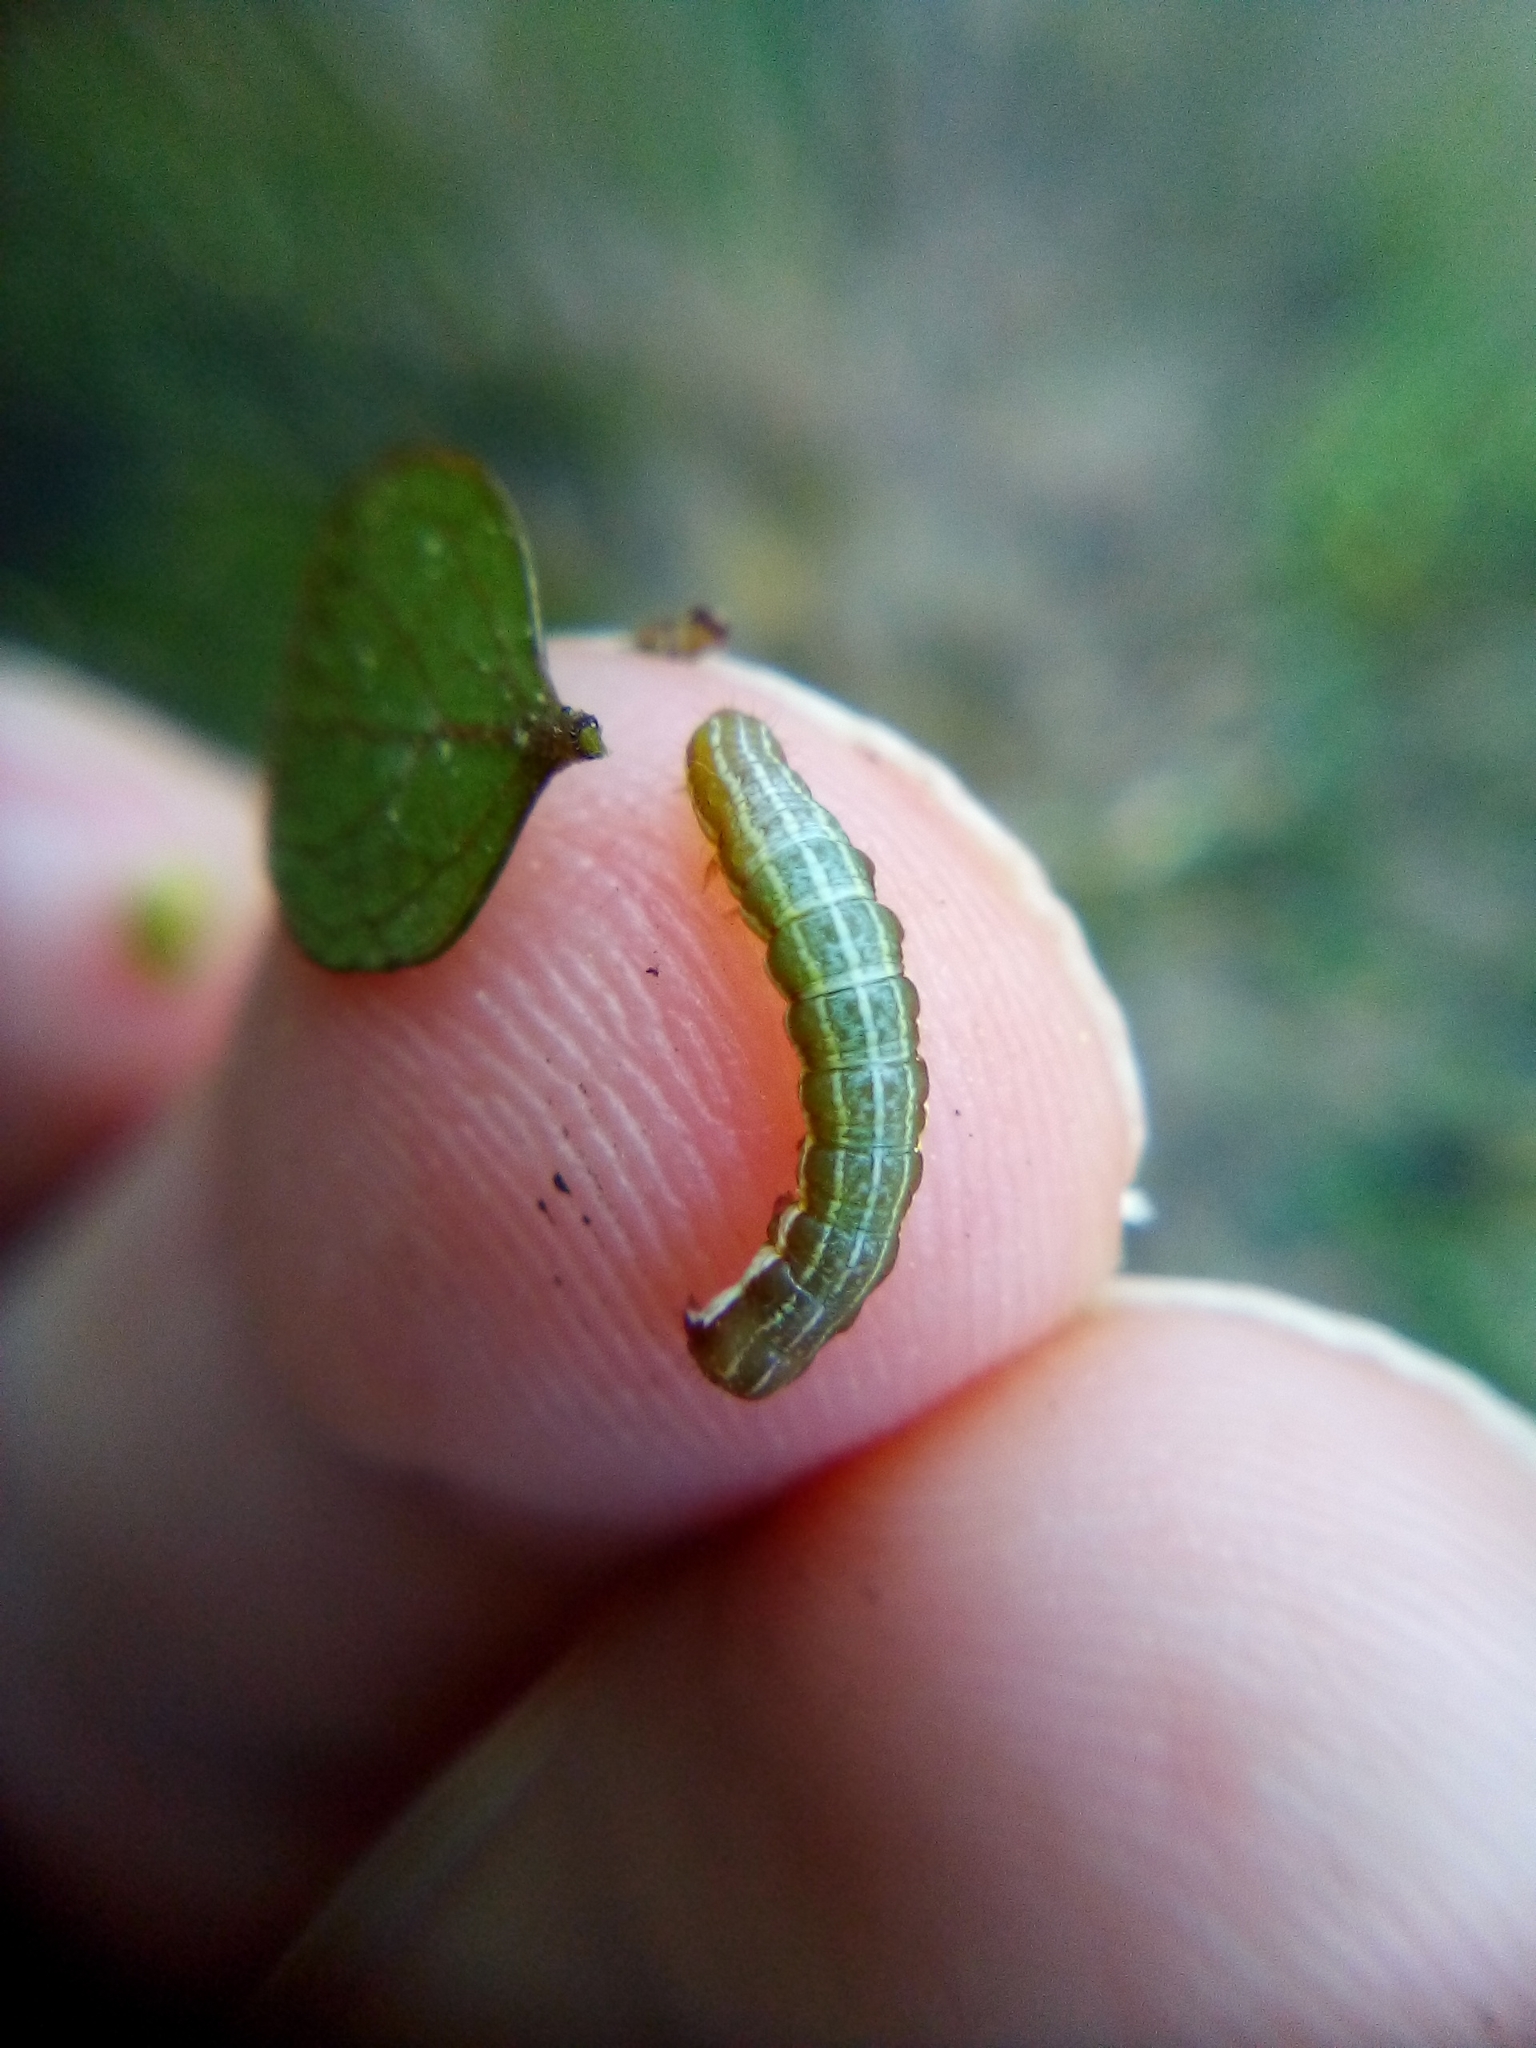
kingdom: Animalia
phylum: Arthropoda
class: Insecta
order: Lepidoptera
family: Noctuidae
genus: Meterana
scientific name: Meterana vitiosa
